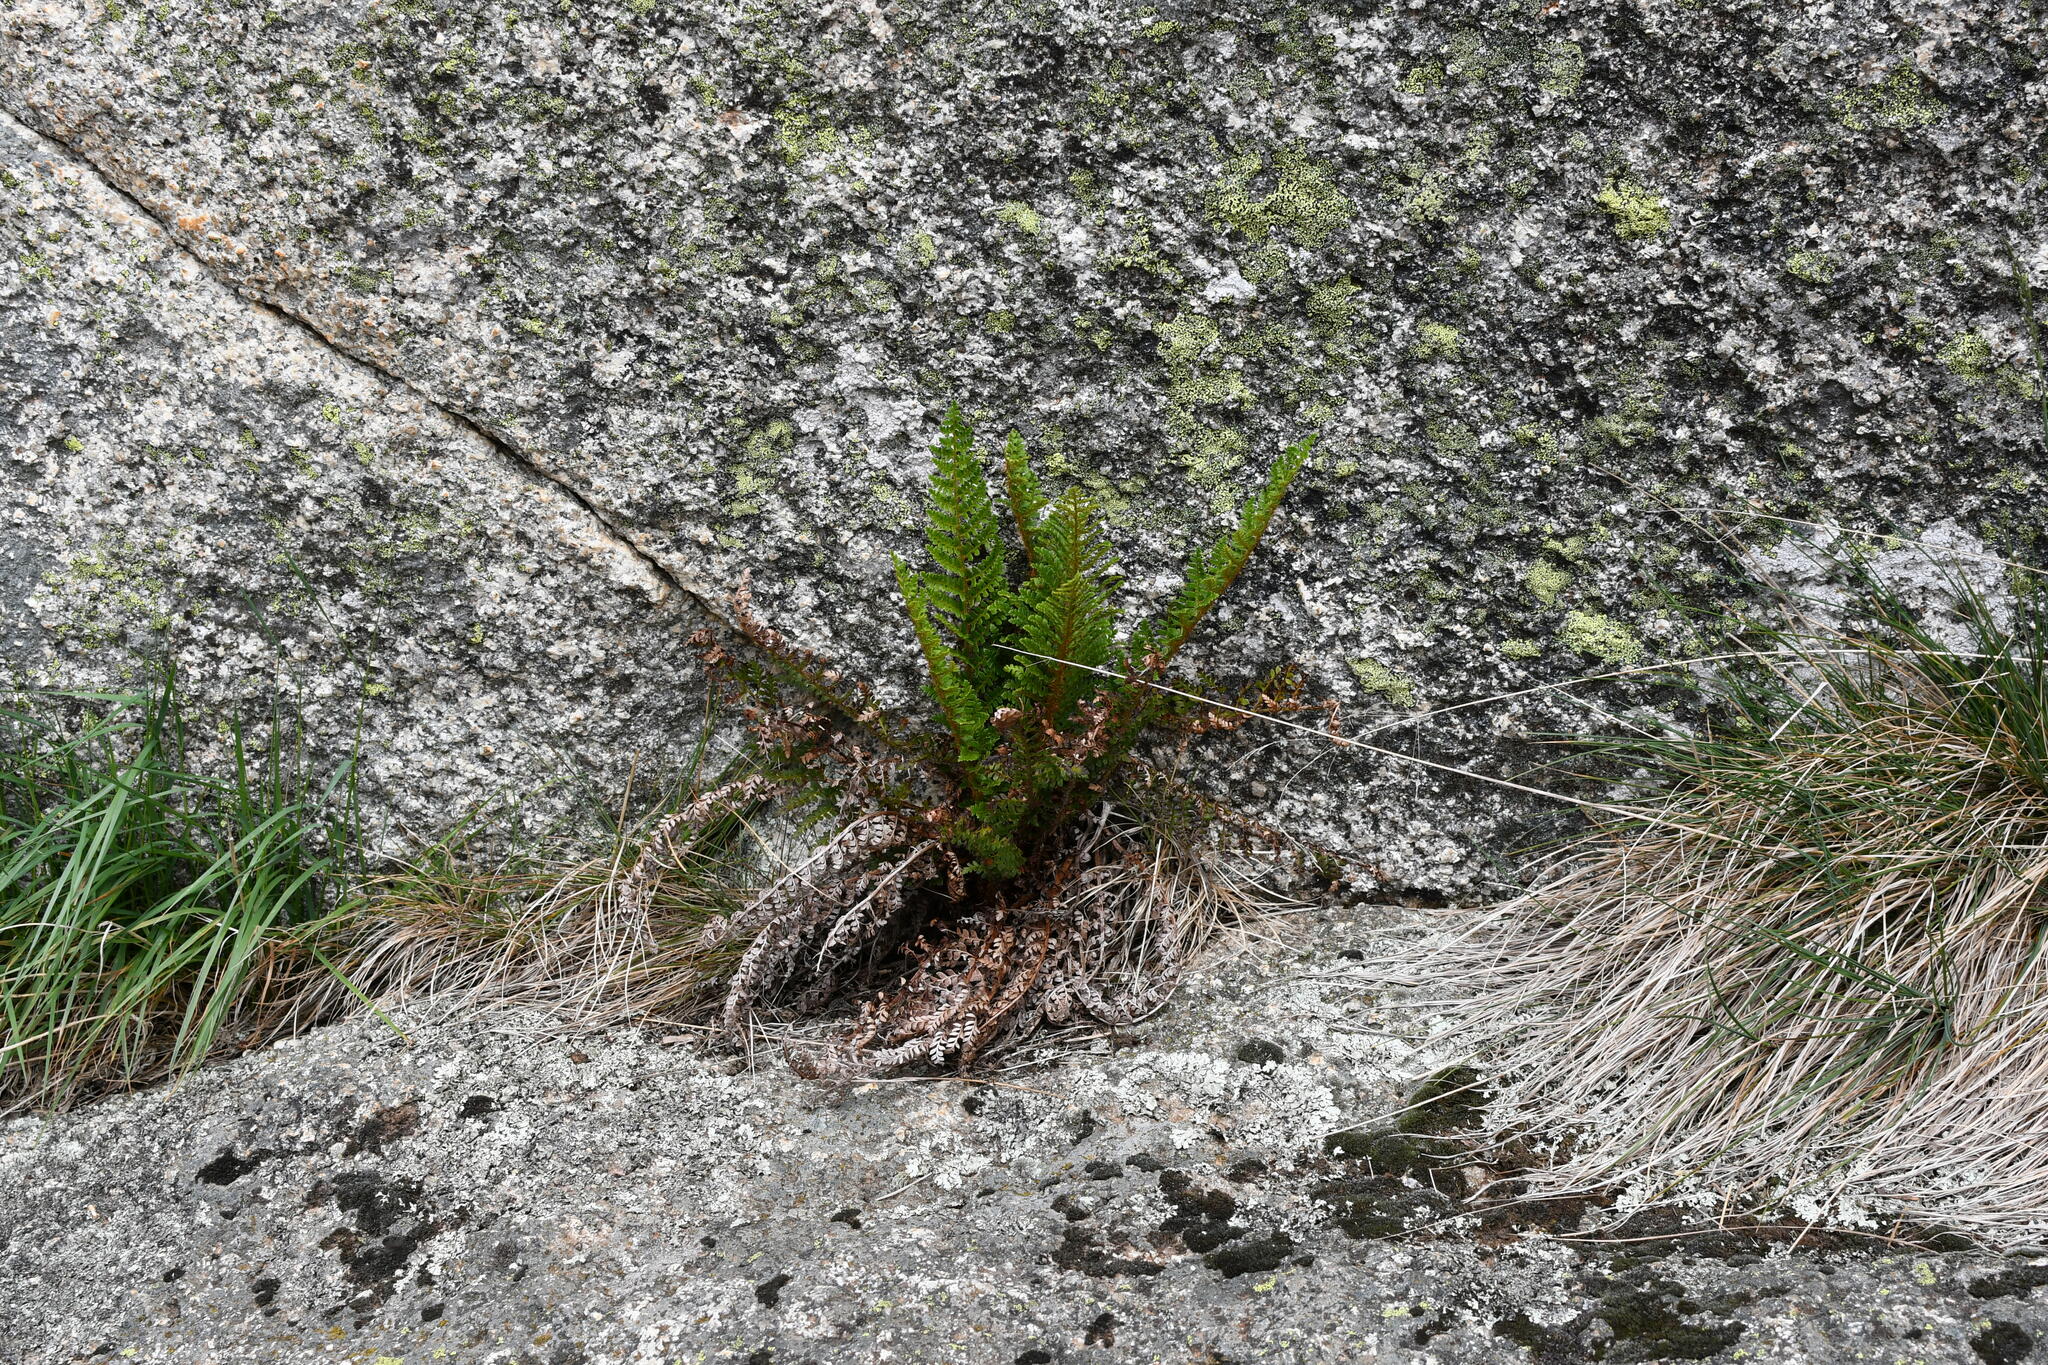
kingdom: Plantae
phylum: Tracheophyta
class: Polypodiopsida
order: Polypodiales
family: Dryopteridaceae
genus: Polystichum
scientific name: Polystichum proliferum
